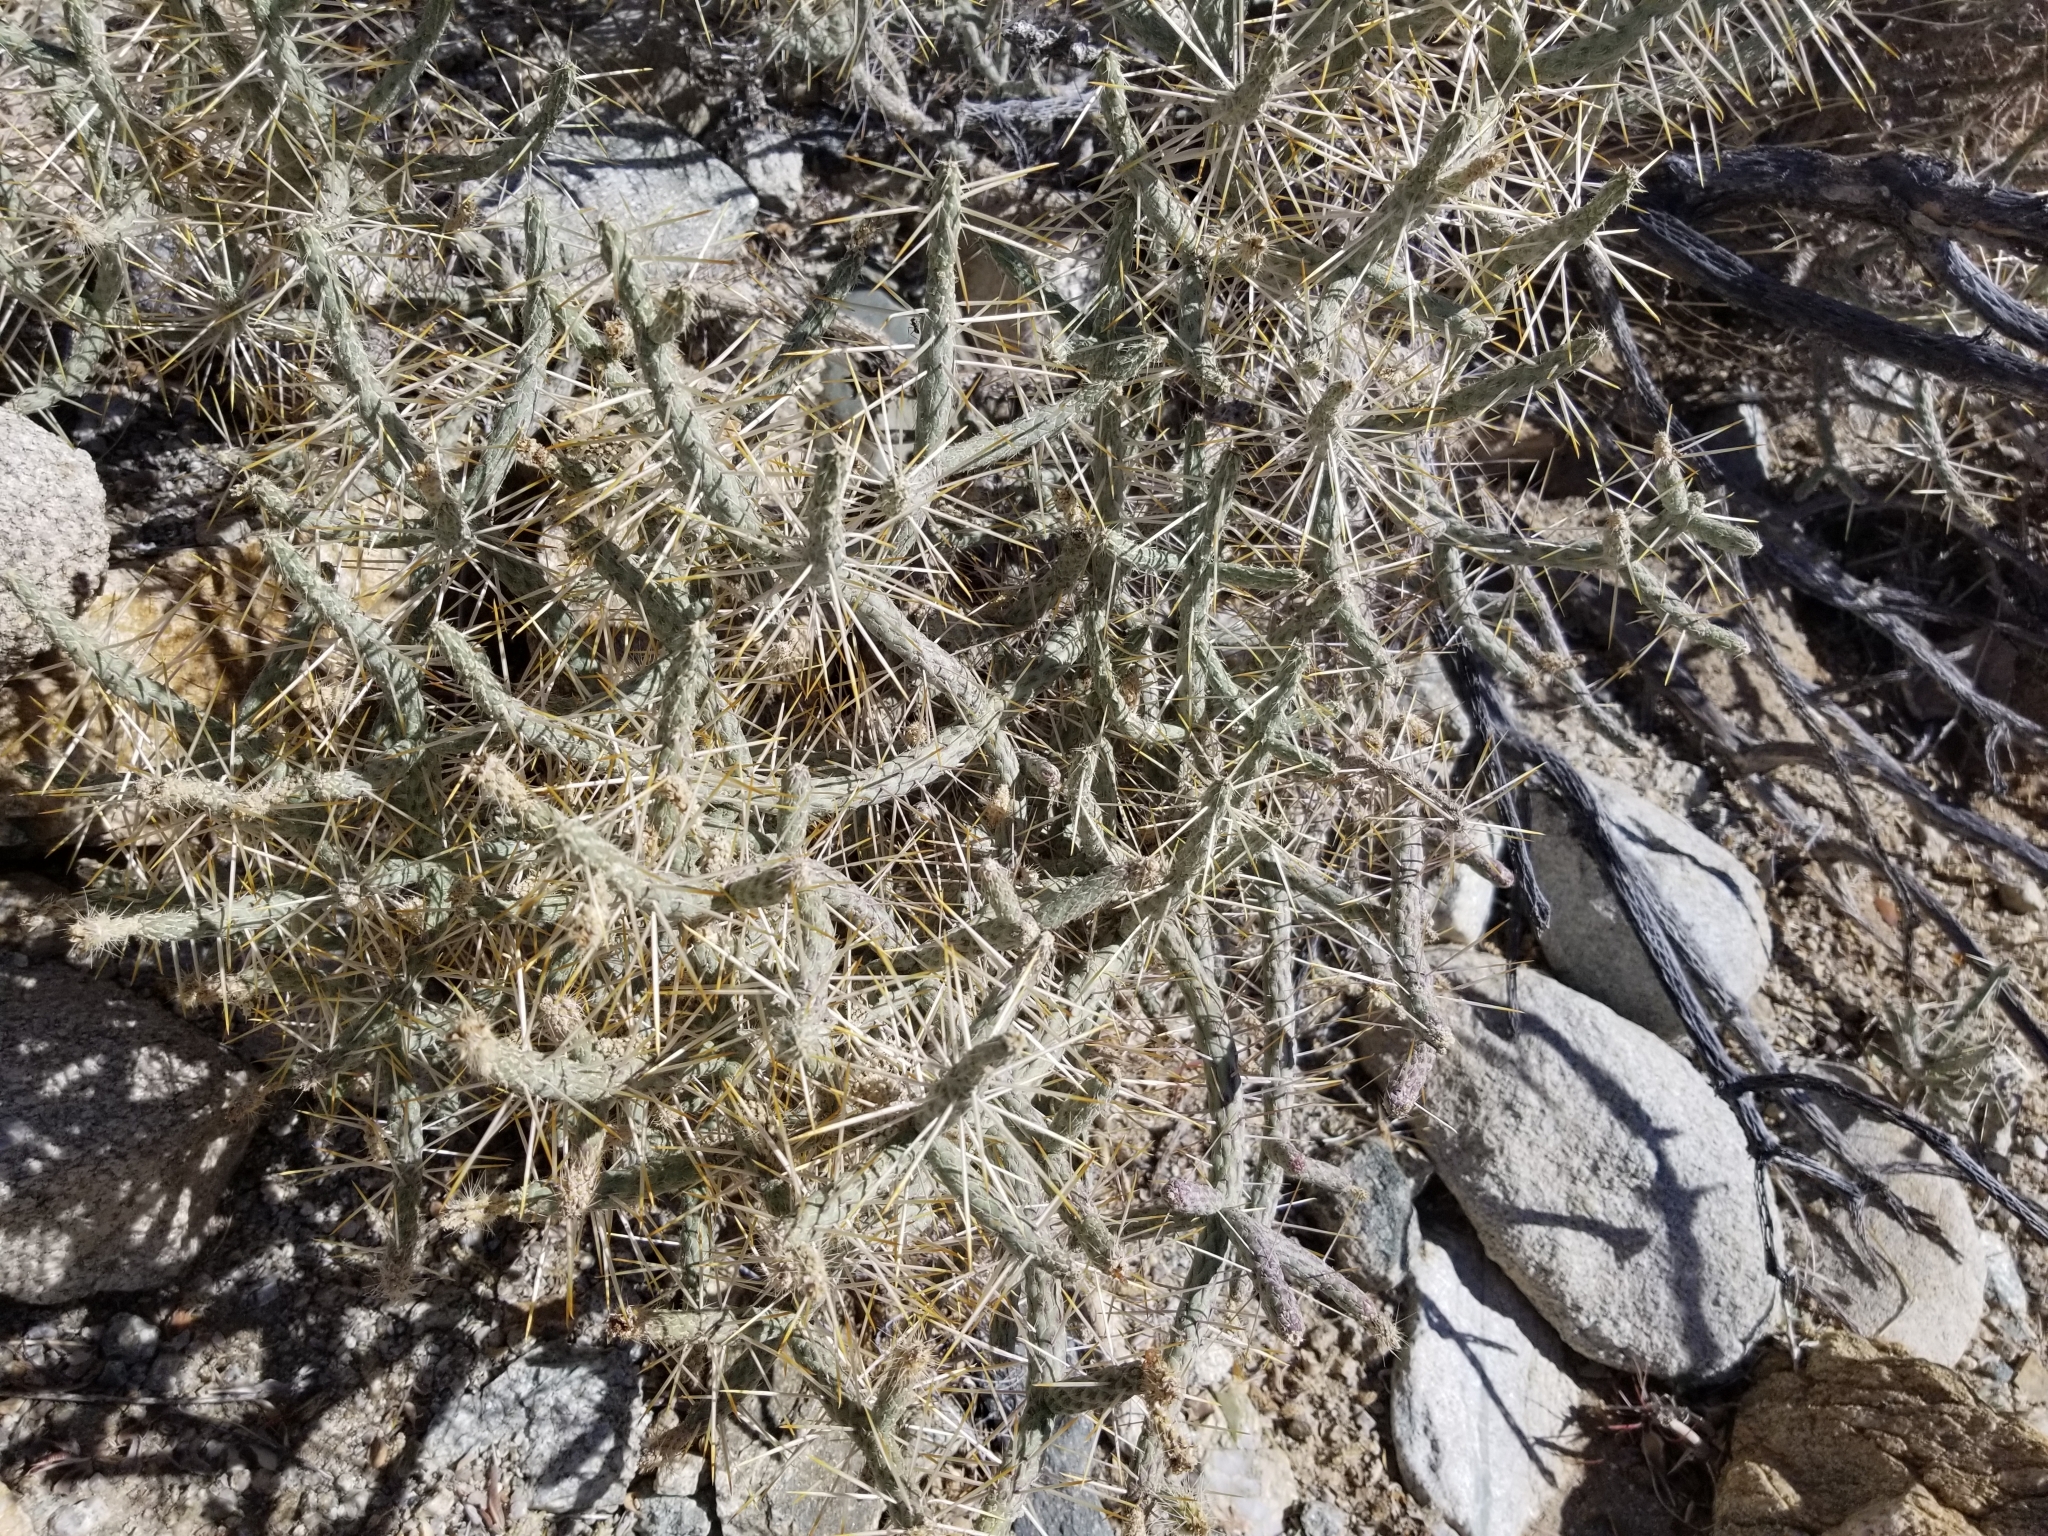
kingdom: Plantae
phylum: Tracheophyta
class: Magnoliopsida
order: Caryophyllales
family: Cactaceae
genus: Cylindropuntia
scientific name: Cylindropuntia ramosissima
